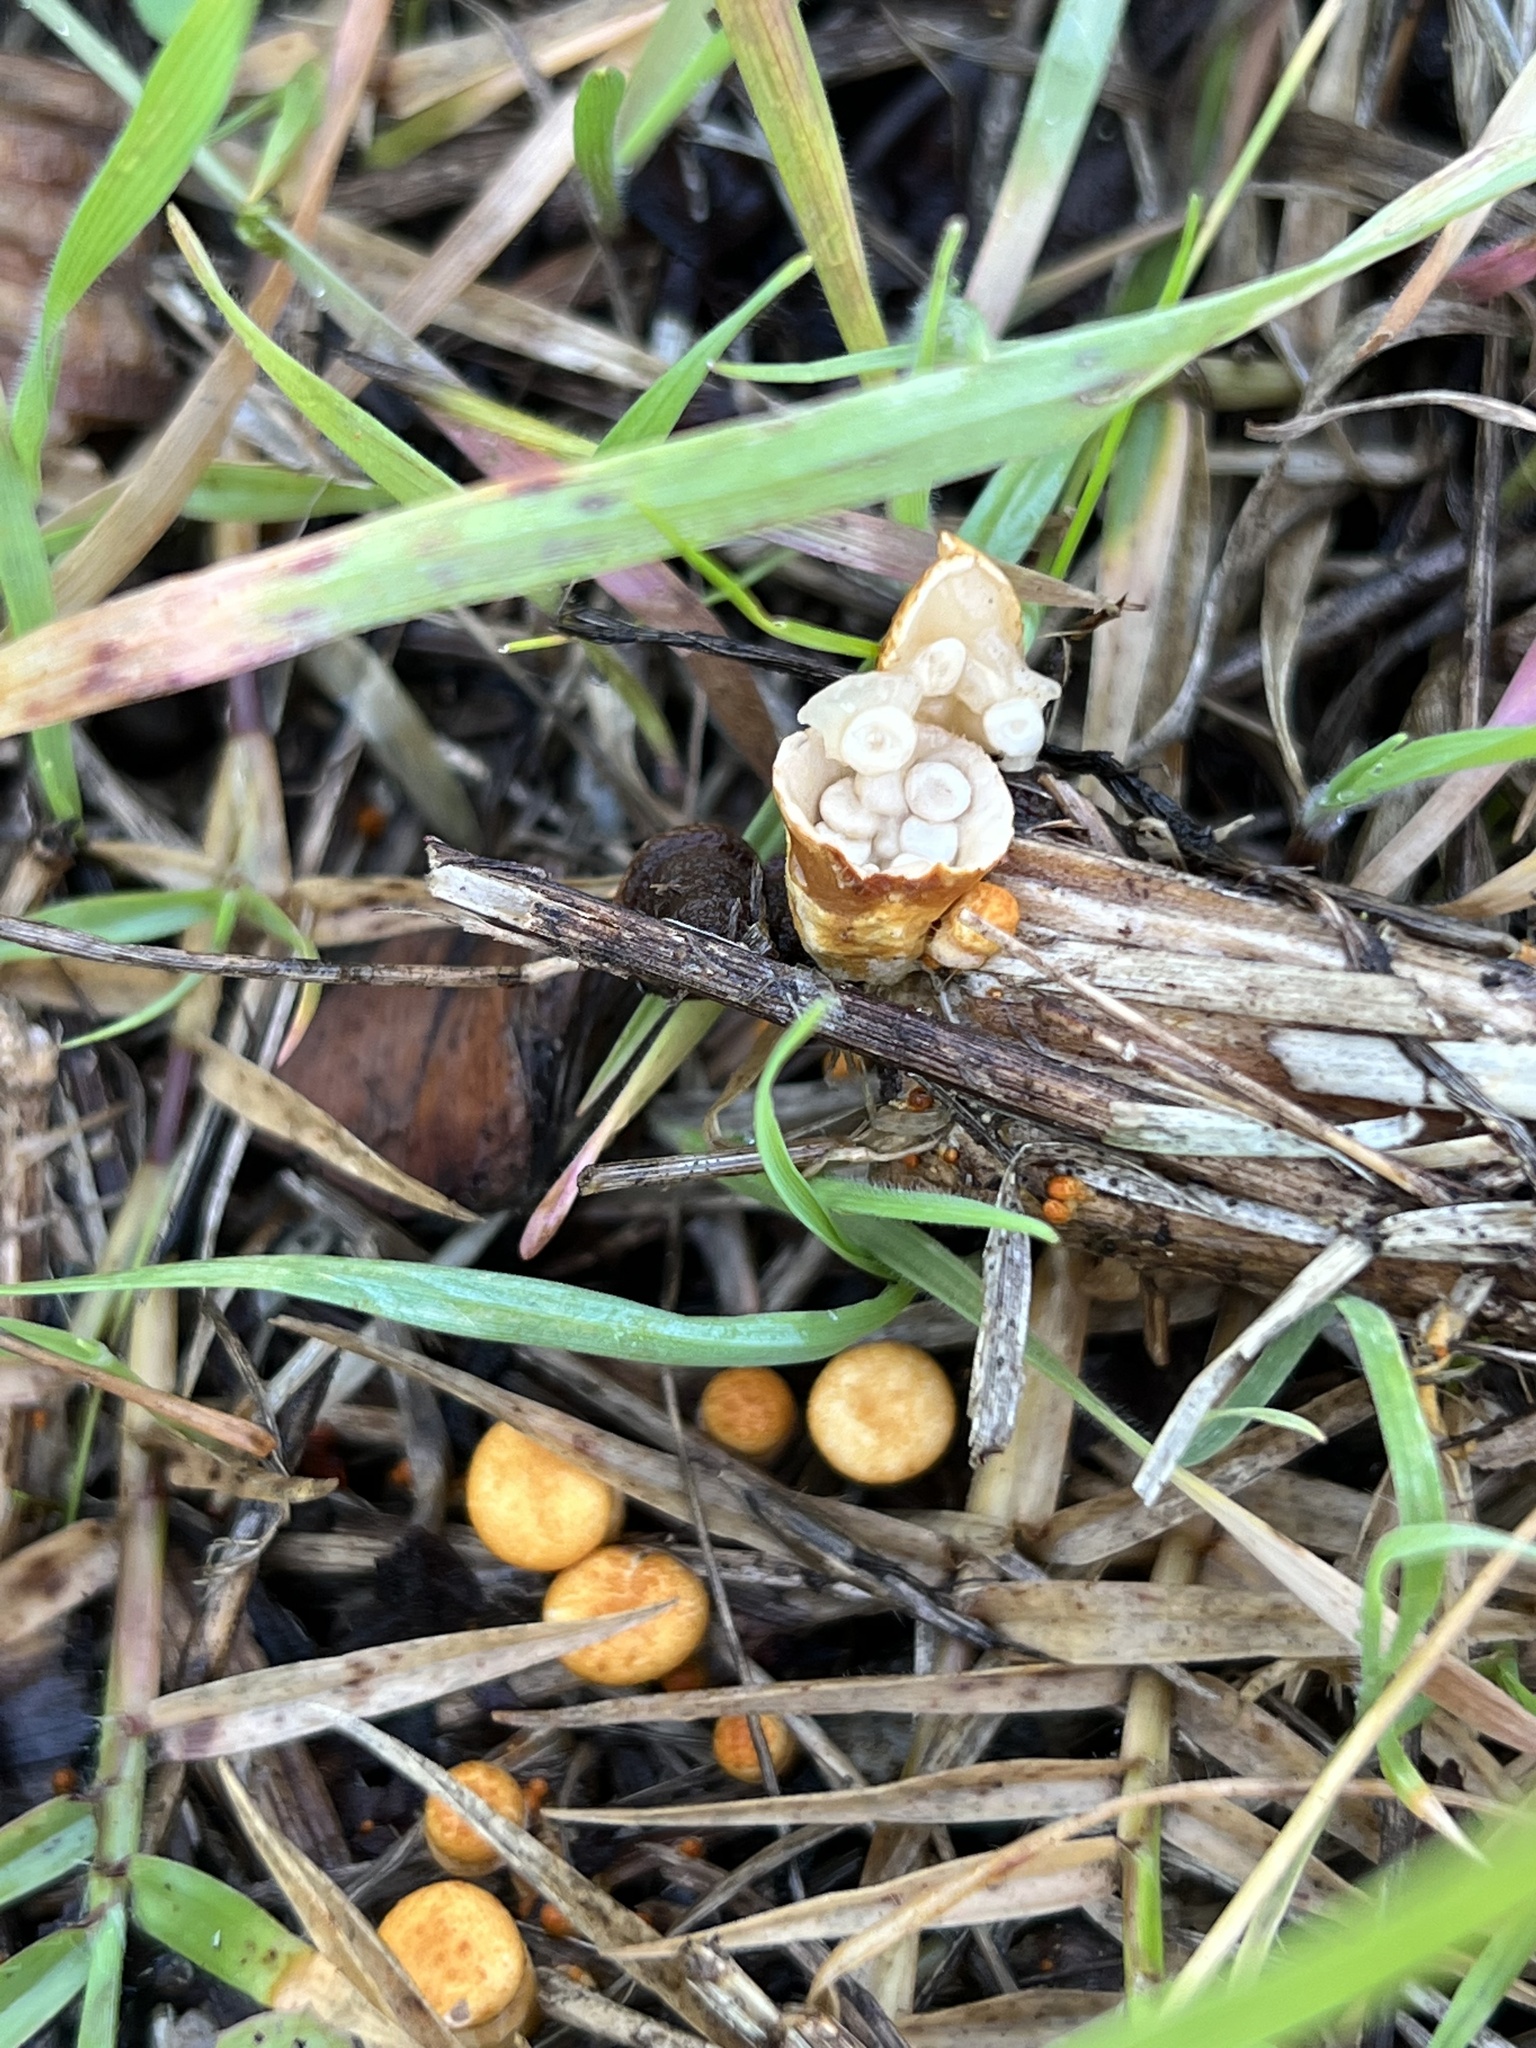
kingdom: Fungi
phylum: Basidiomycota
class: Agaricomycetes
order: Agaricales
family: Nidulariaceae
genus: Crucibulum
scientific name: Crucibulum laeve
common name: Common bird's nest
